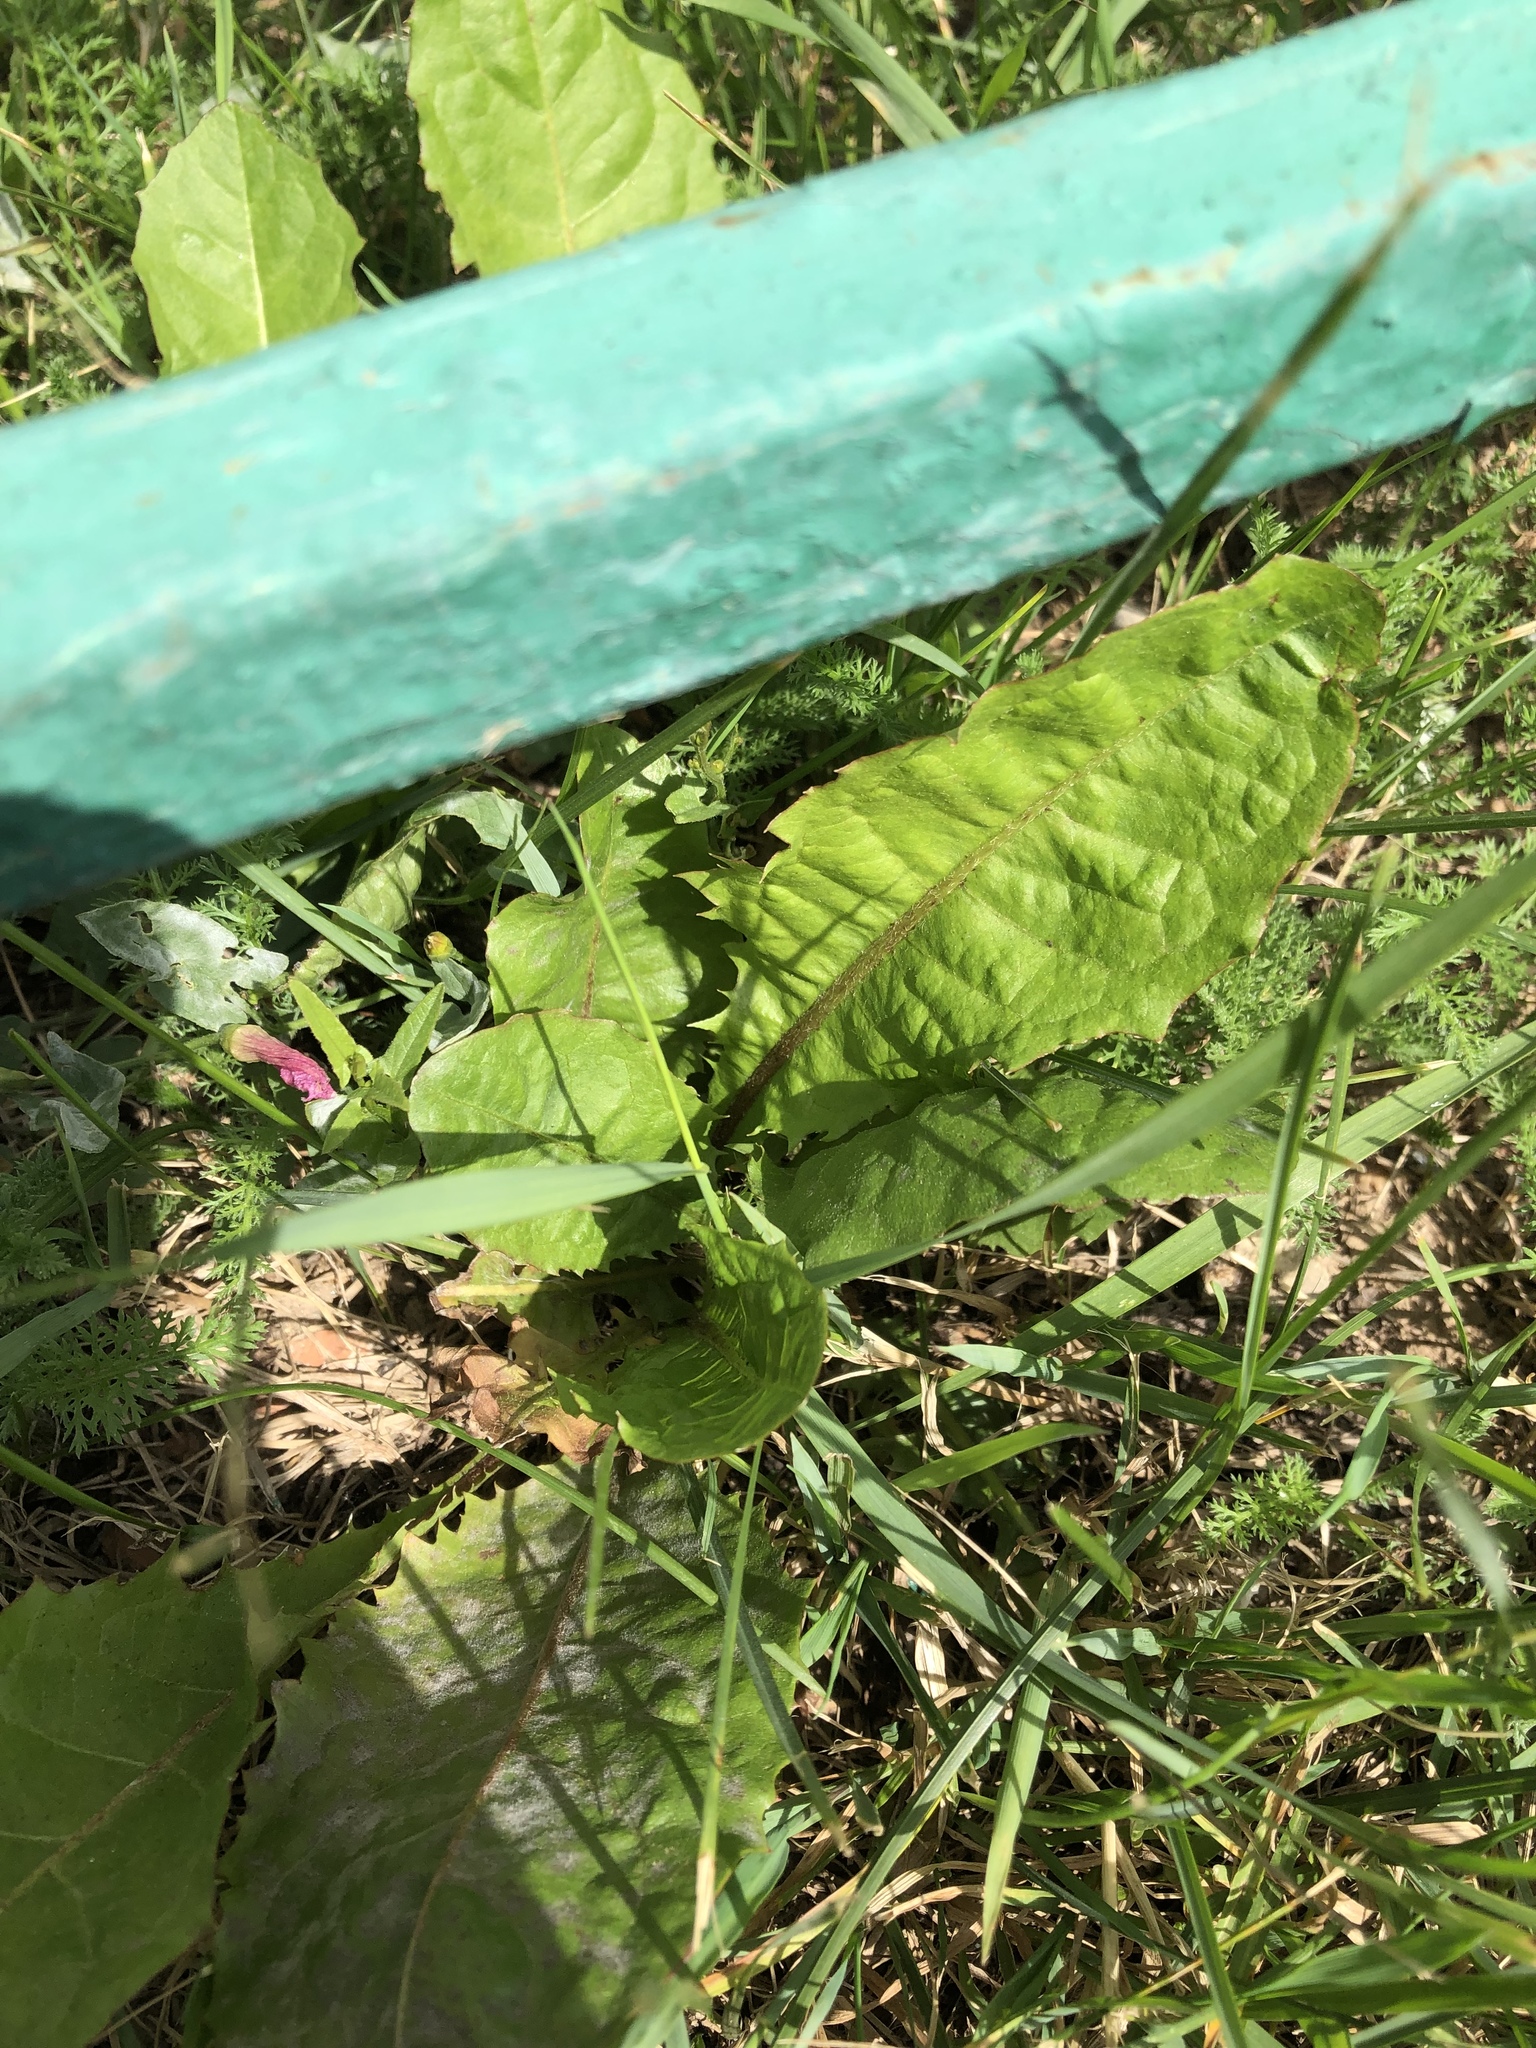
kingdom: Plantae
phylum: Tracheophyta
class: Magnoliopsida
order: Asterales
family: Asteraceae
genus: Taraxacum
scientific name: Taraxacum officinale
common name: Common dandelion
